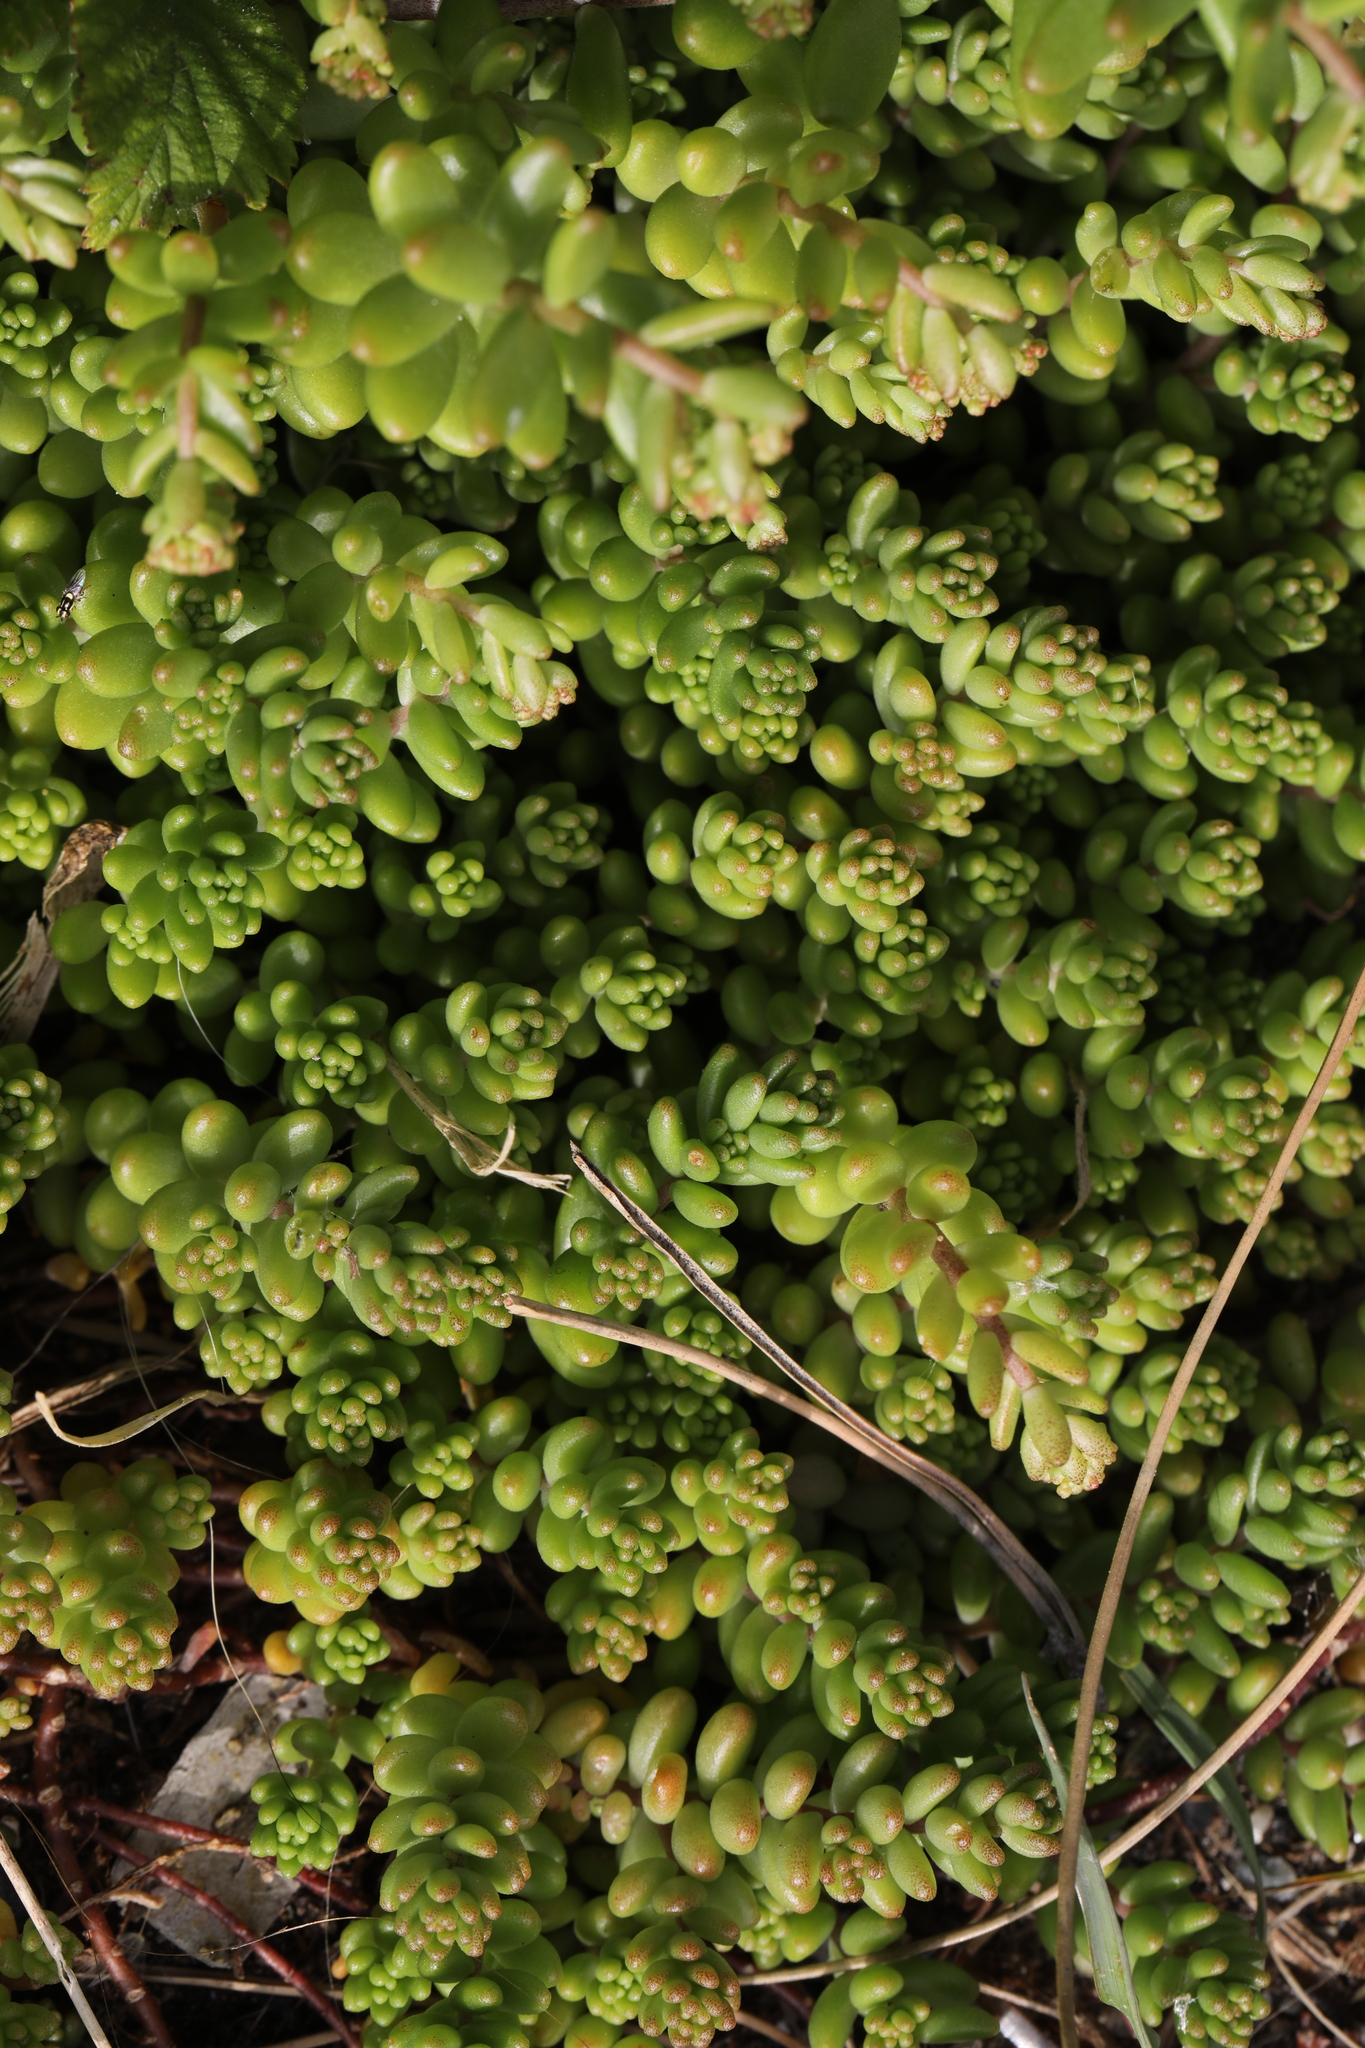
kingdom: Plantae
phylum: Tracheophyta
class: Magnoliopsida
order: Saxifragales
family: Crassulaceae
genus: Sedum
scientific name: Sedum album
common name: White stonecrop
